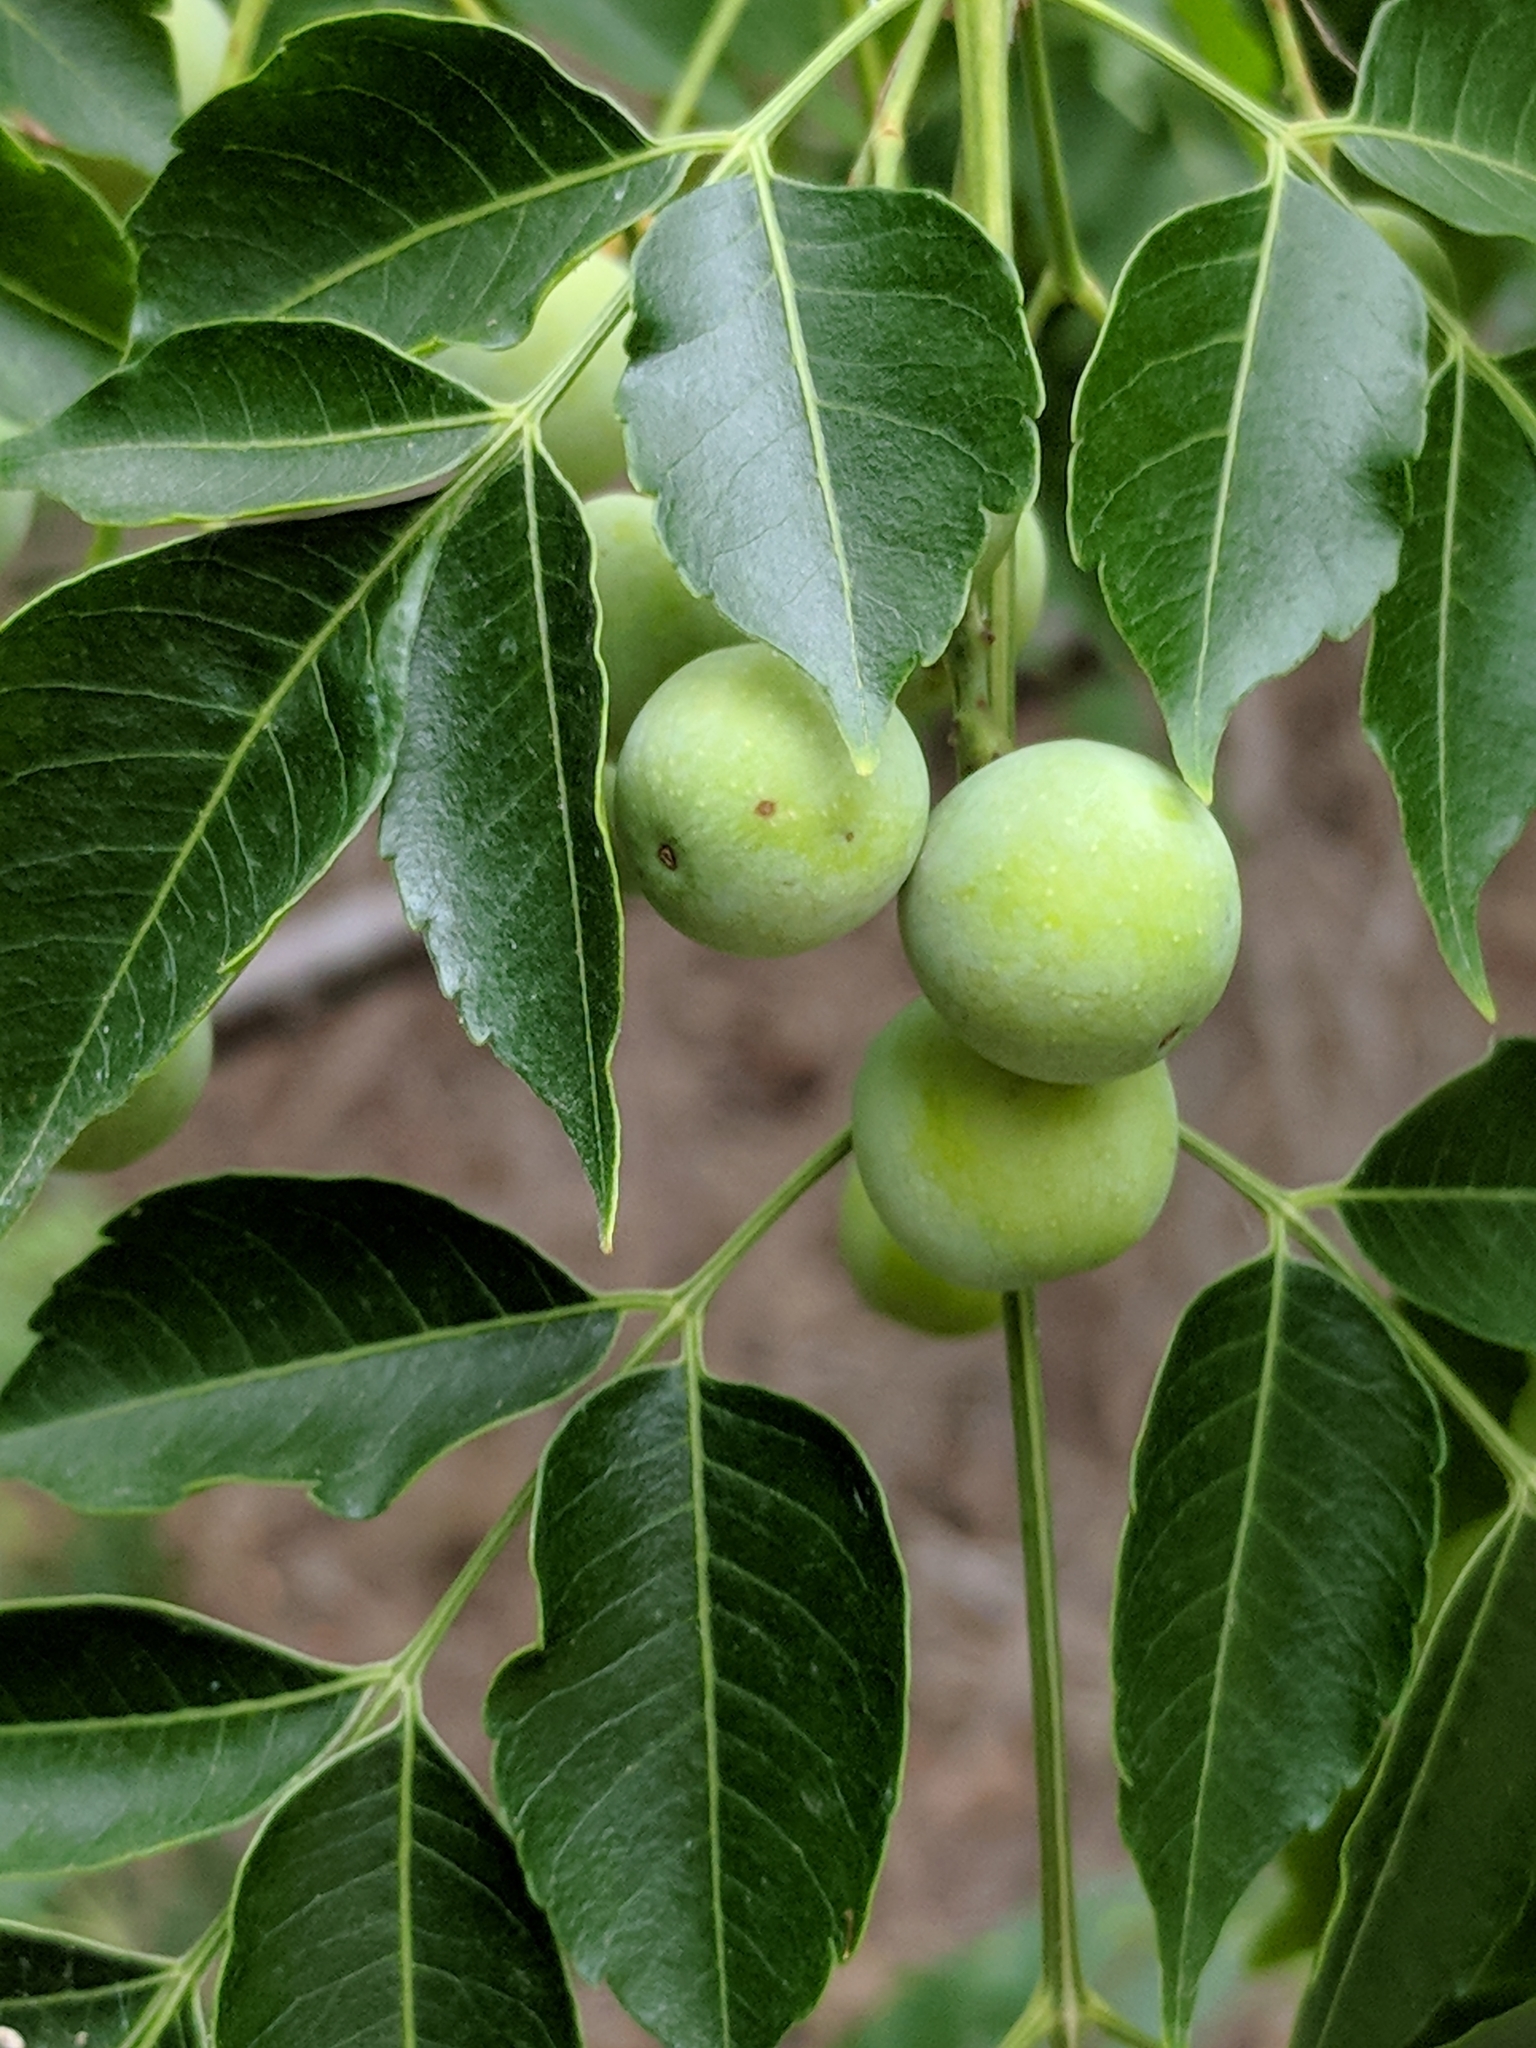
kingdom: Plantae
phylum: Tracheophyta
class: Magnoliopsida
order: Sapindales
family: Meliaceae
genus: Melia
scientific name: Melia azedarach
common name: Chinaberrytree
